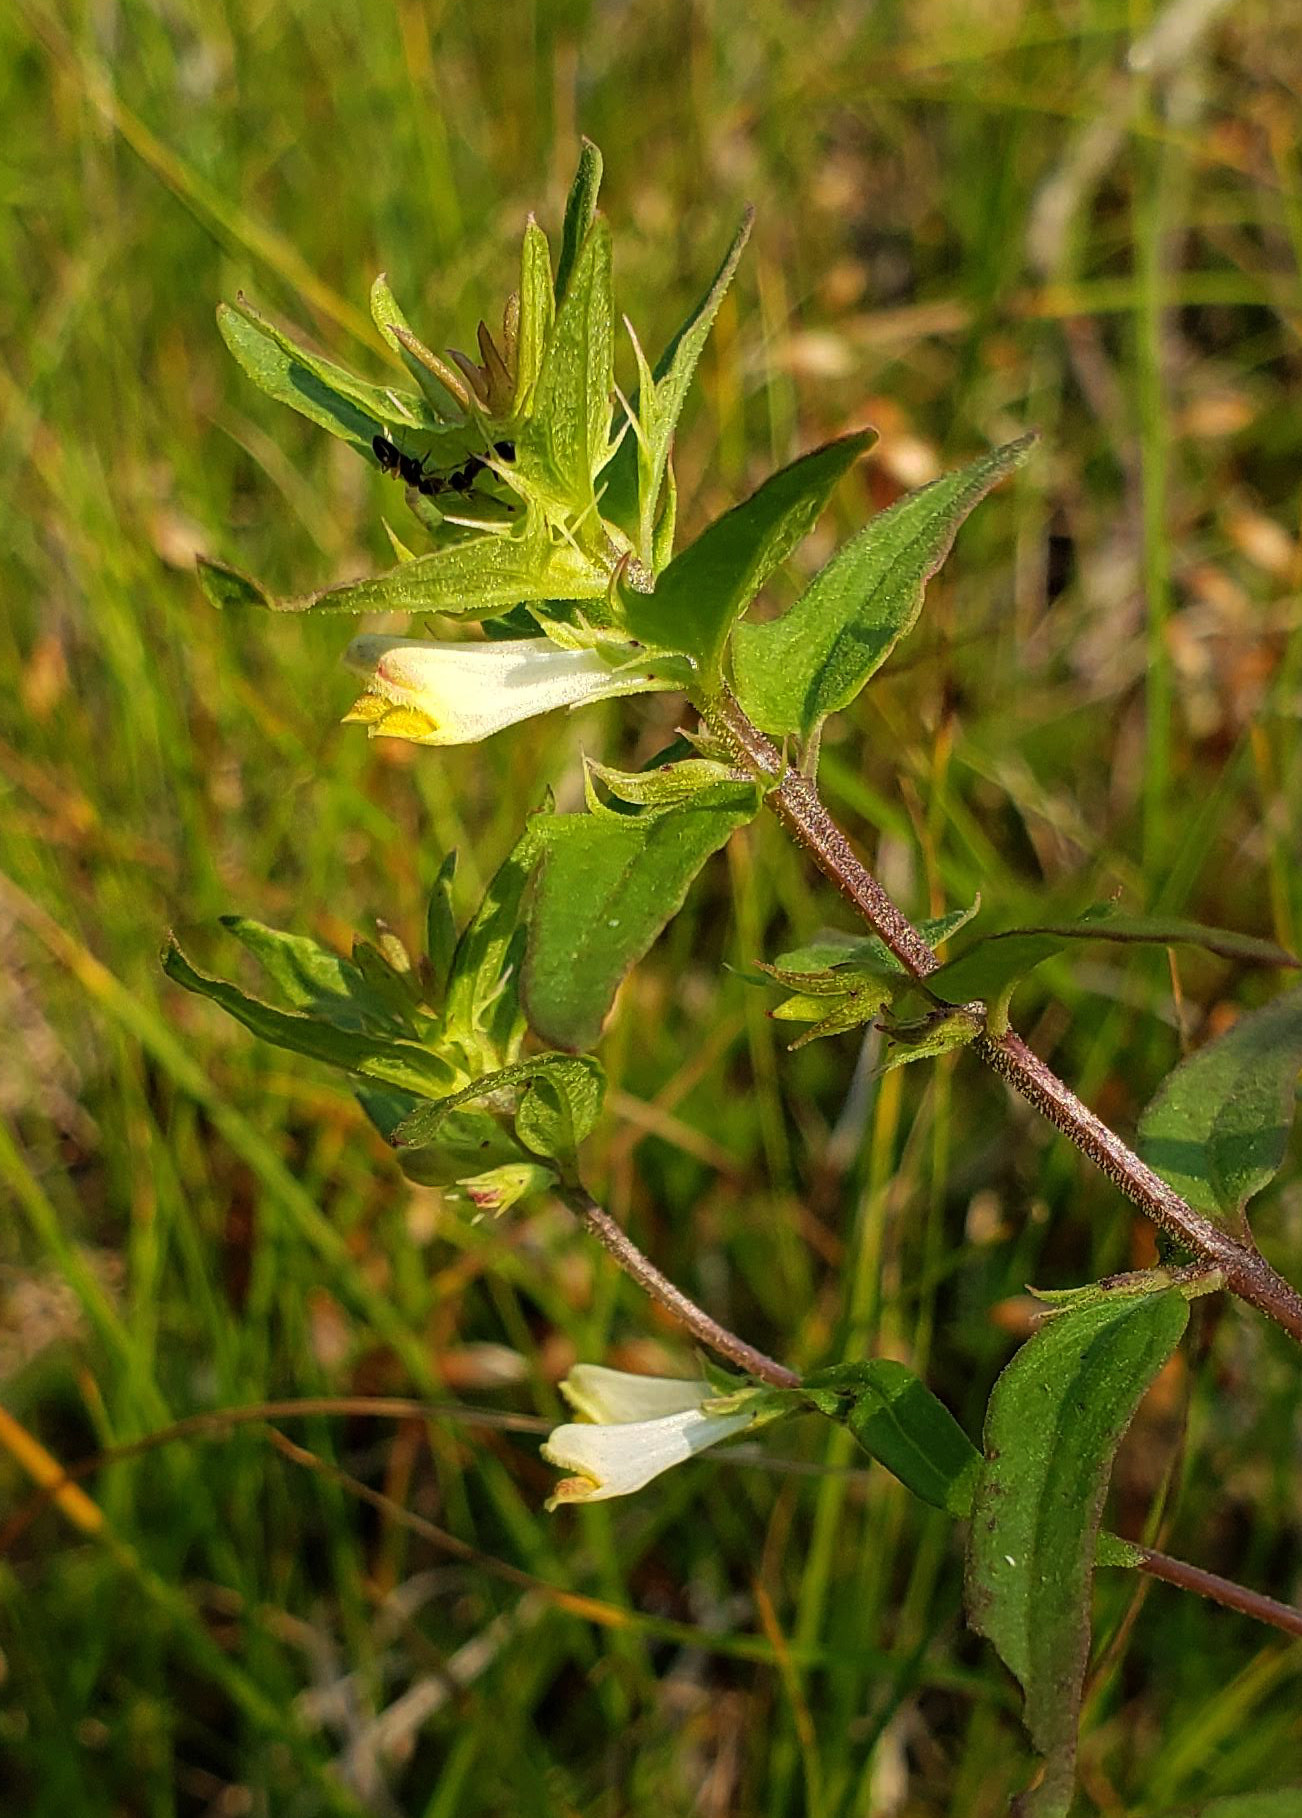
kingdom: Plantae
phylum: Tracheophyta
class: Magnoliopsida
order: Lamiales
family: Orobanchaceae
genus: Melampyrum
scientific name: Melampyrum lineare
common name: American cow-wheat
